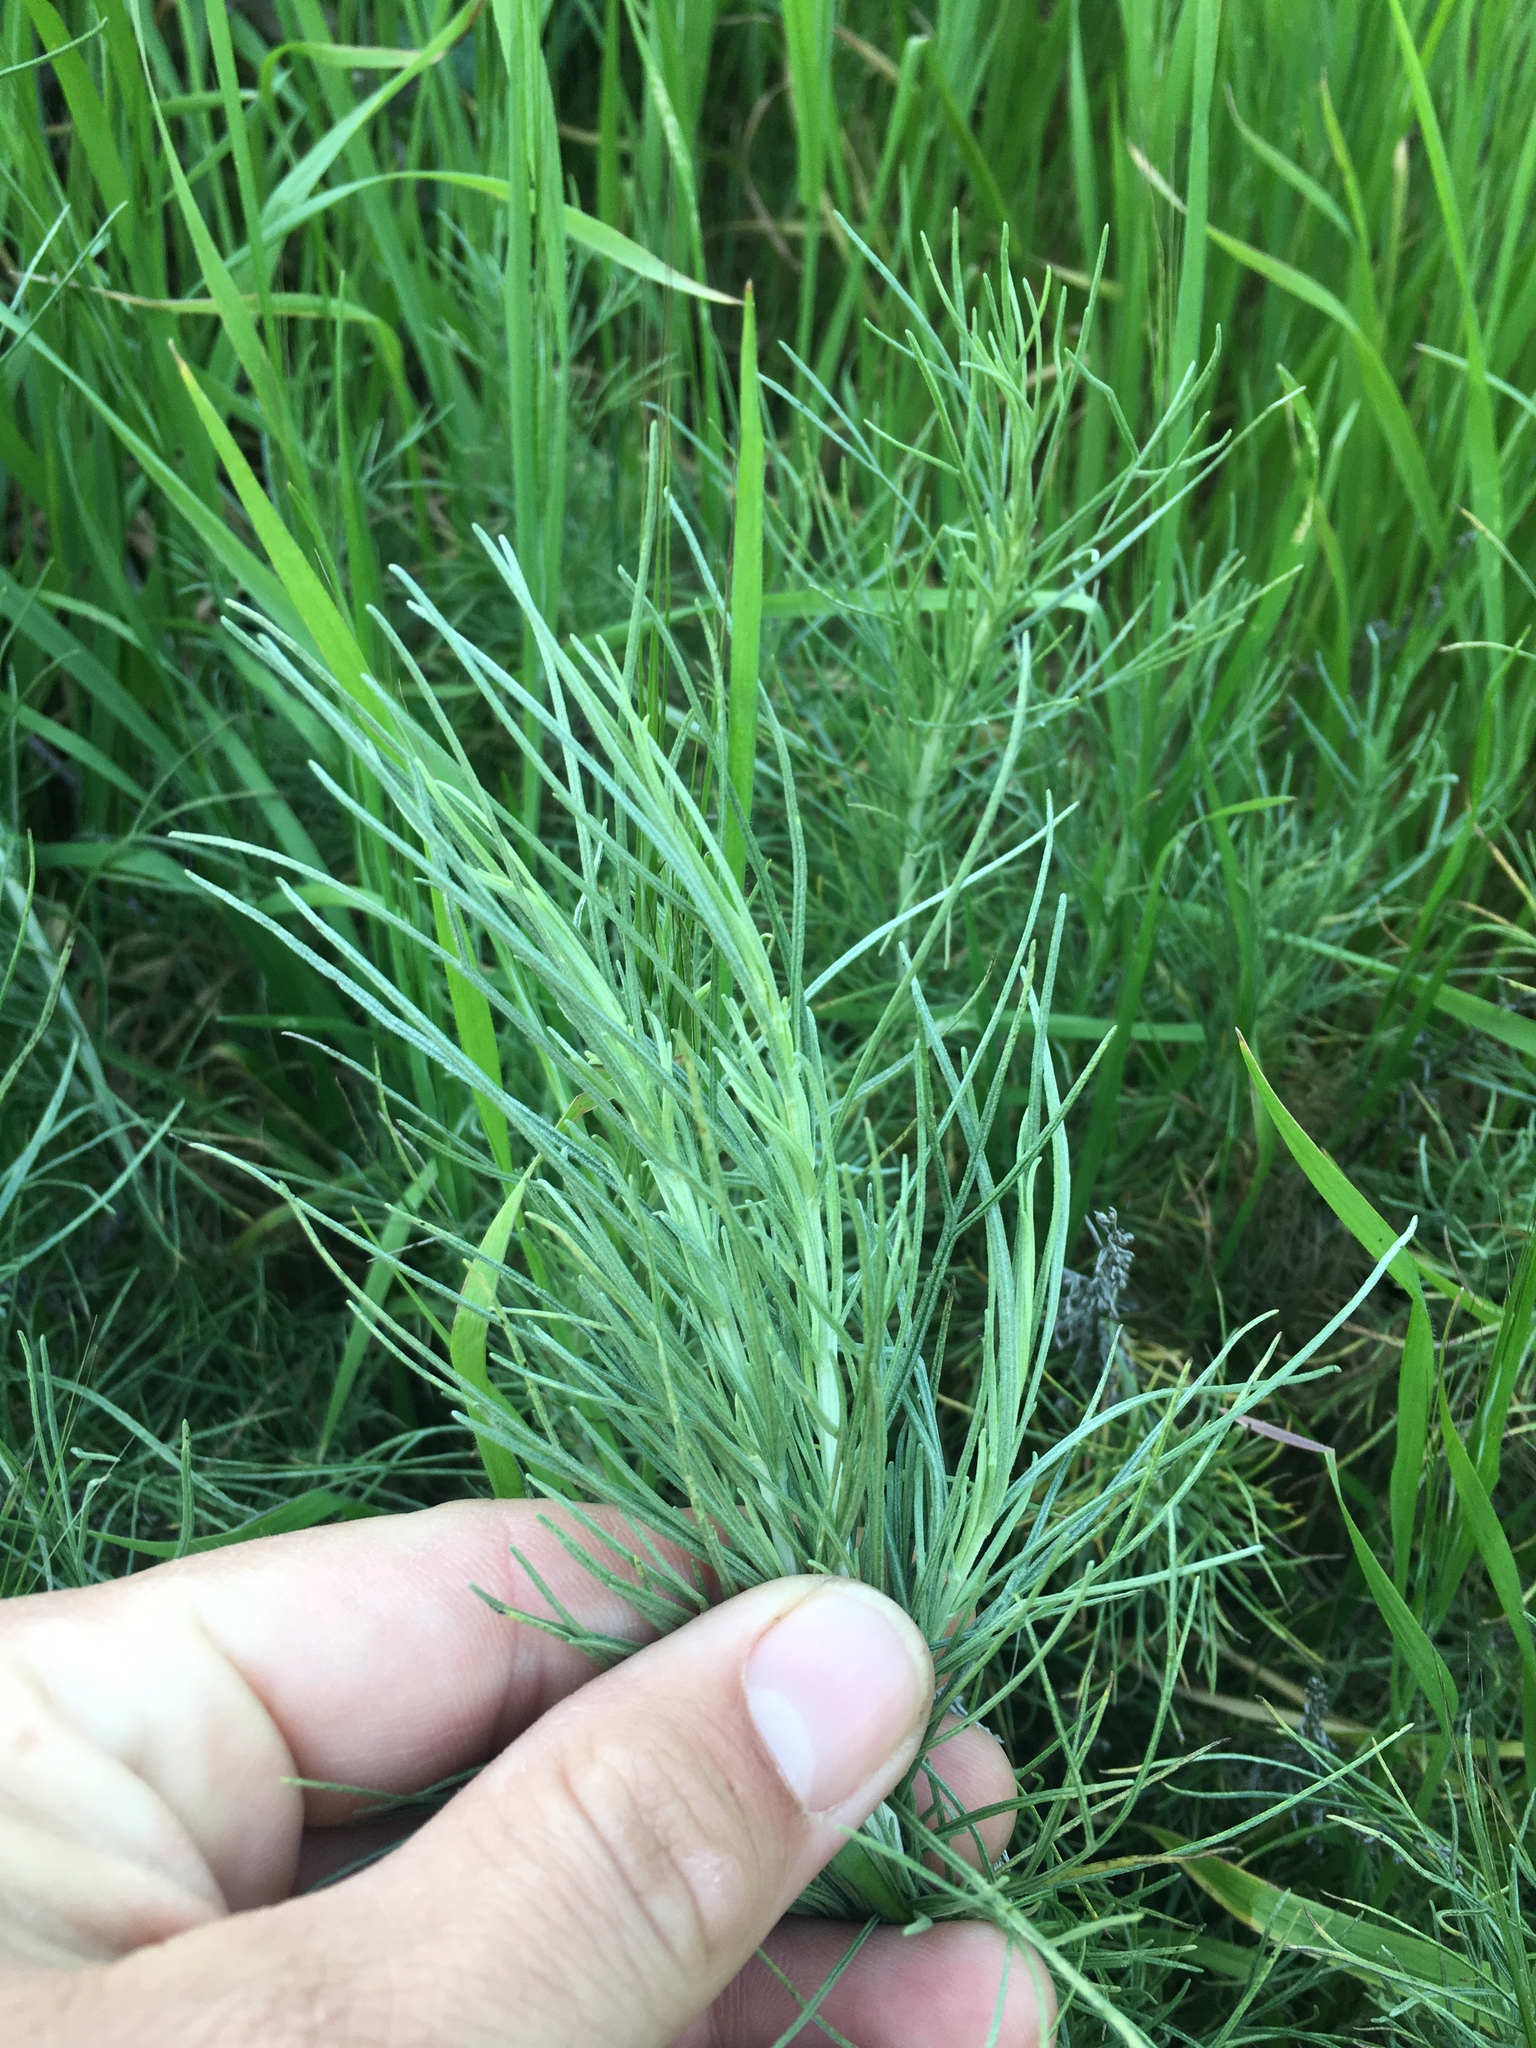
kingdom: Plantae
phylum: Tracheophyta
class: Magnoliopsida
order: Asterales
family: Asteraceae
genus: Artemisia
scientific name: Artemisia californica
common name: California sagebrush
